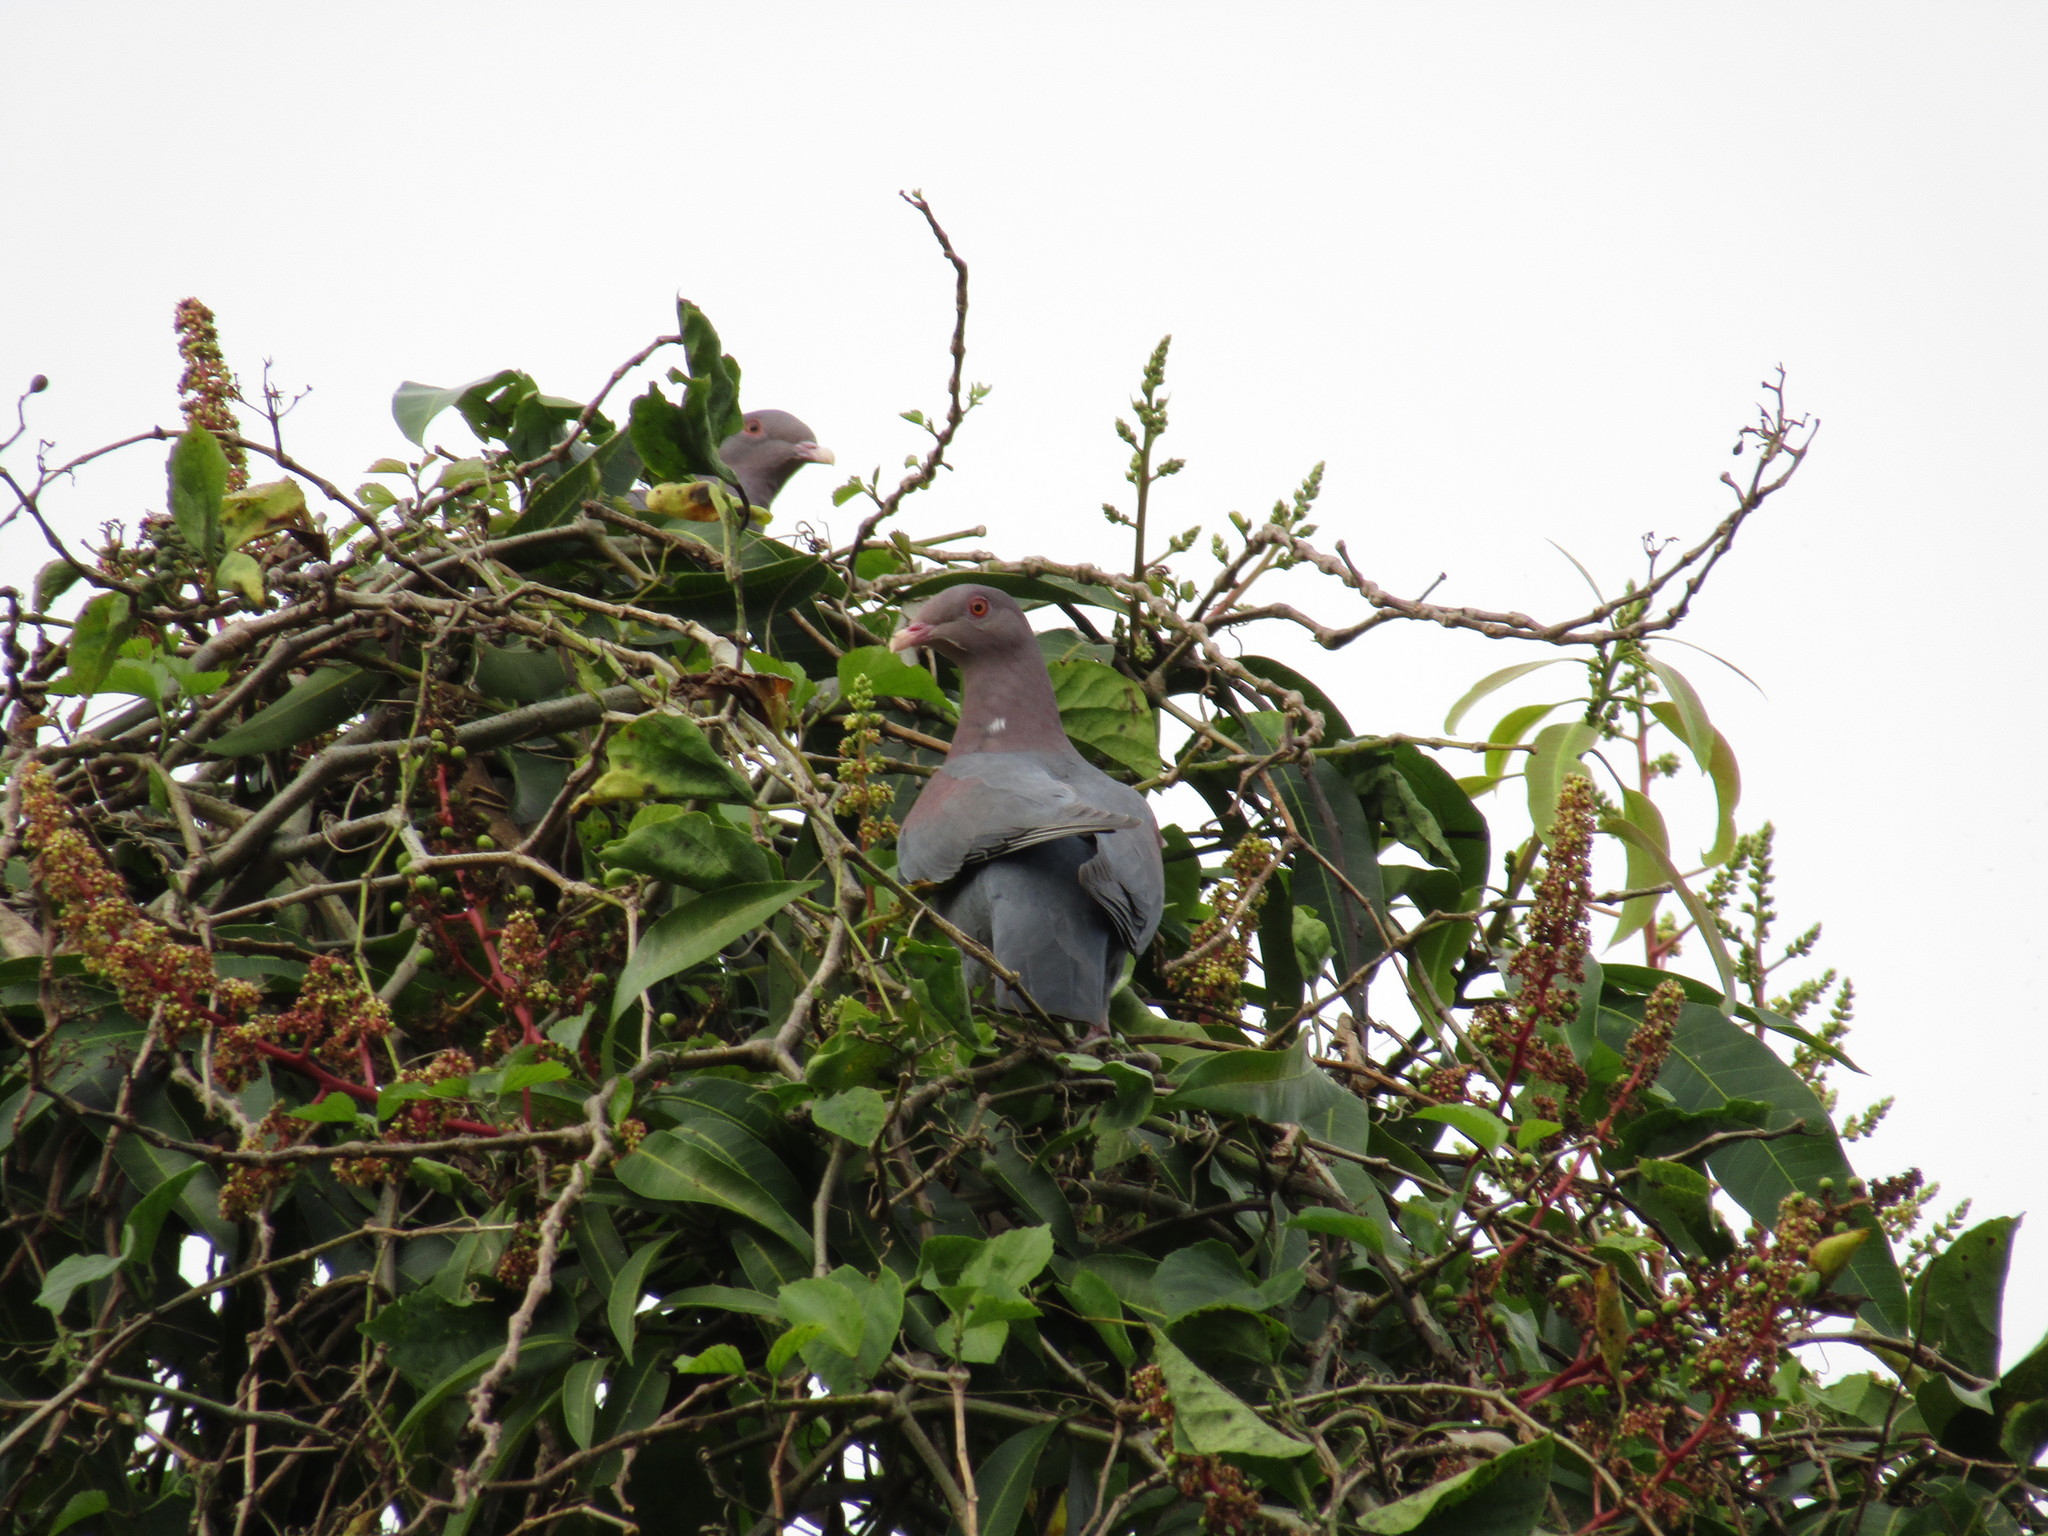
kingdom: Animalia
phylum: Chordata
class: Aves
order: Columbiformes
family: Columbidae
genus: Patagioenas
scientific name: Patagioenas flavirostris
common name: Red-billed pigeon
